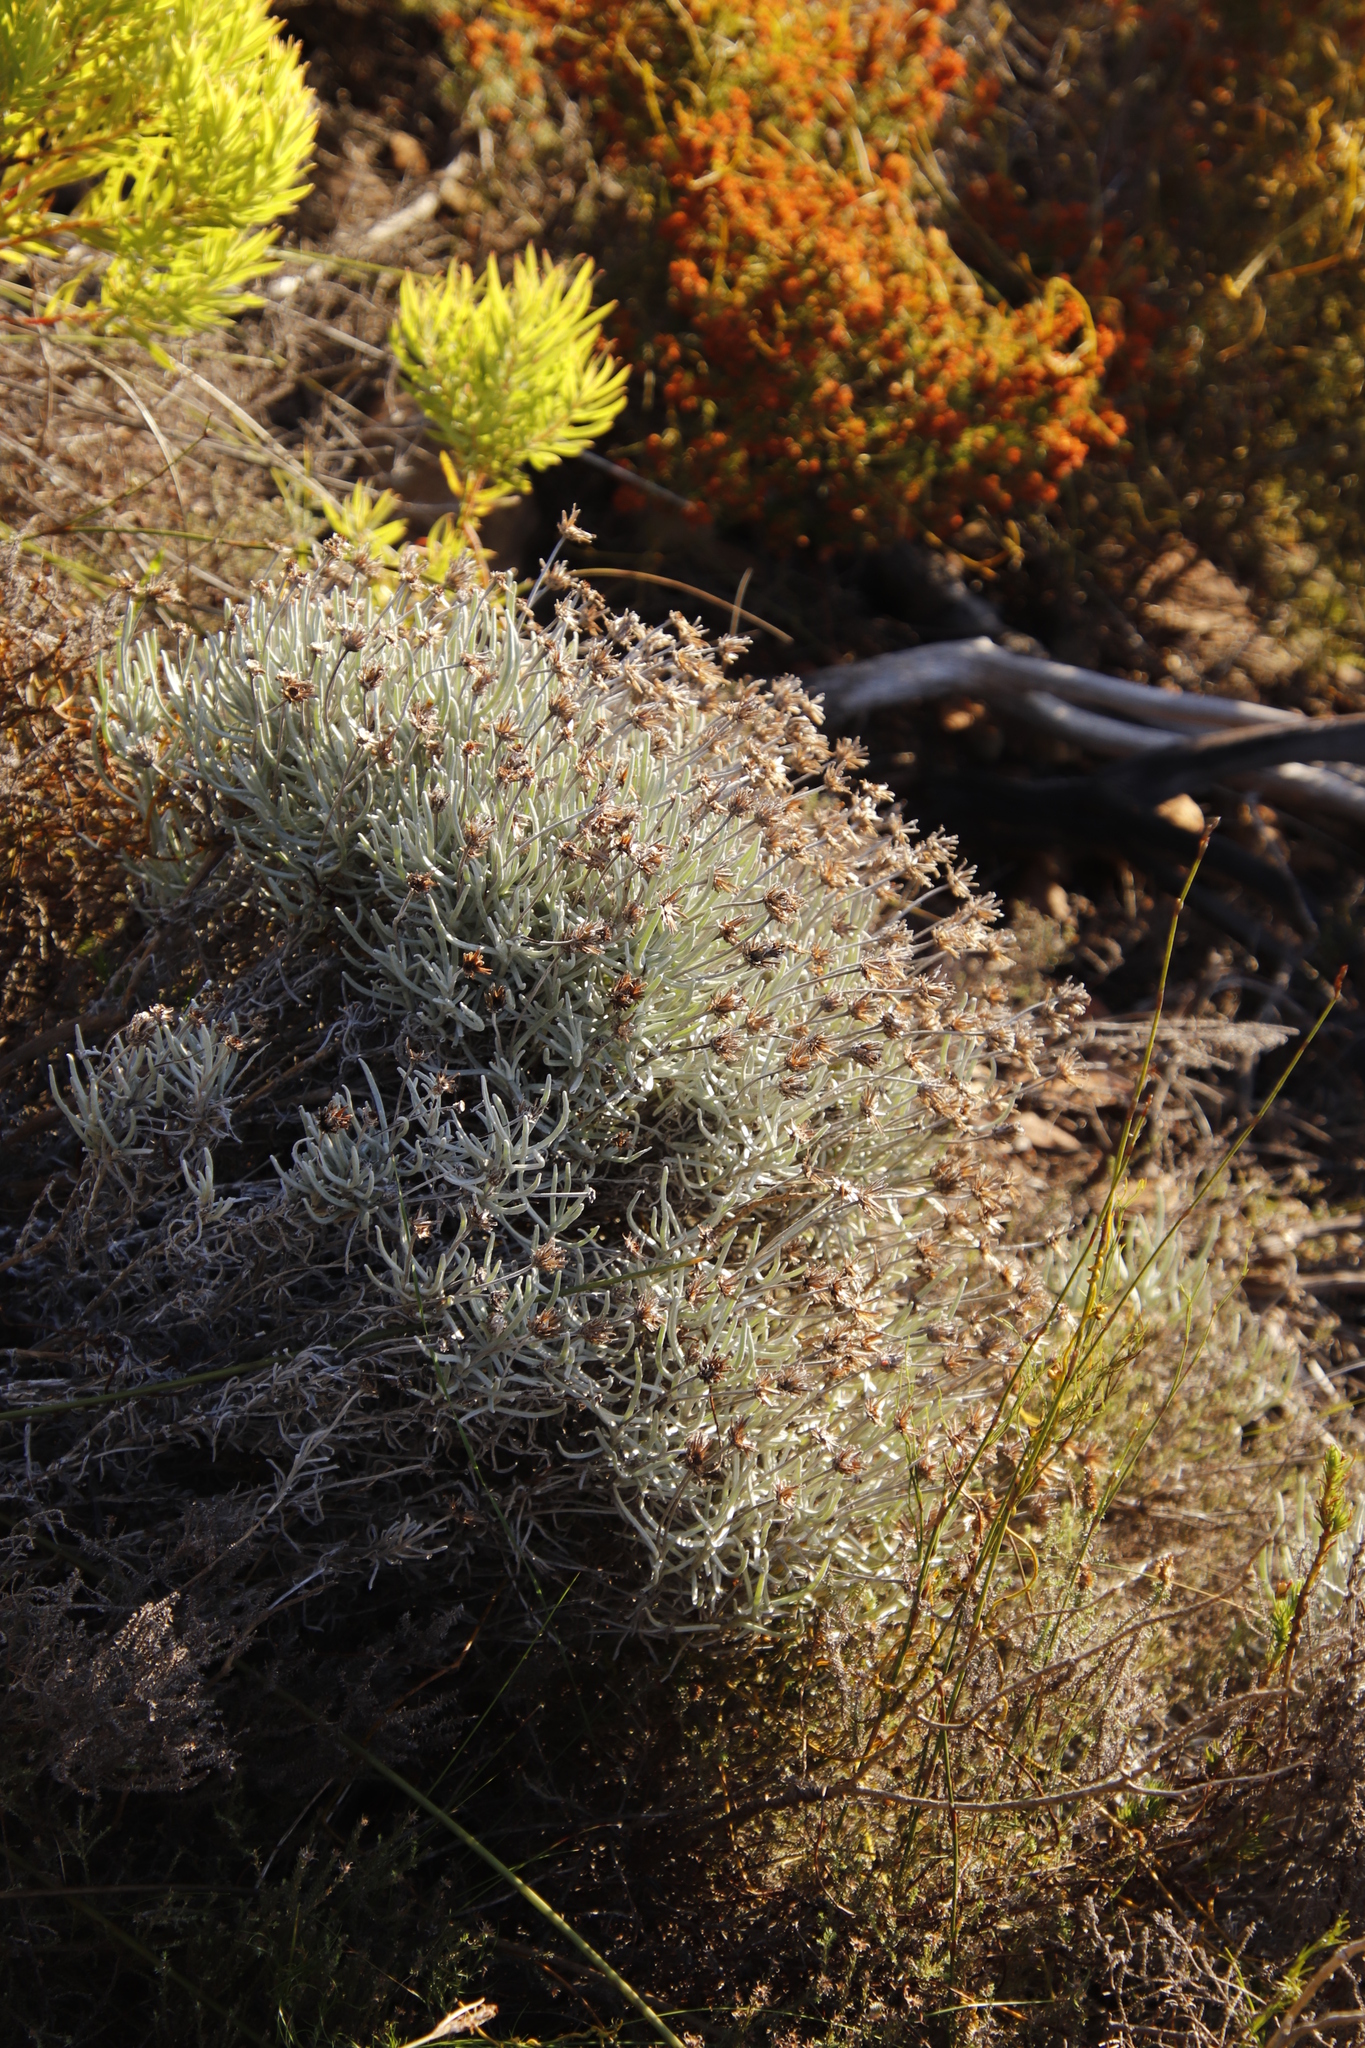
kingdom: Plantae
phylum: Tracheophyta
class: Magnoliopsida
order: Asterales
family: Asteraceae
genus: Syncarpha
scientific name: Syncarpha gnaphaloides
